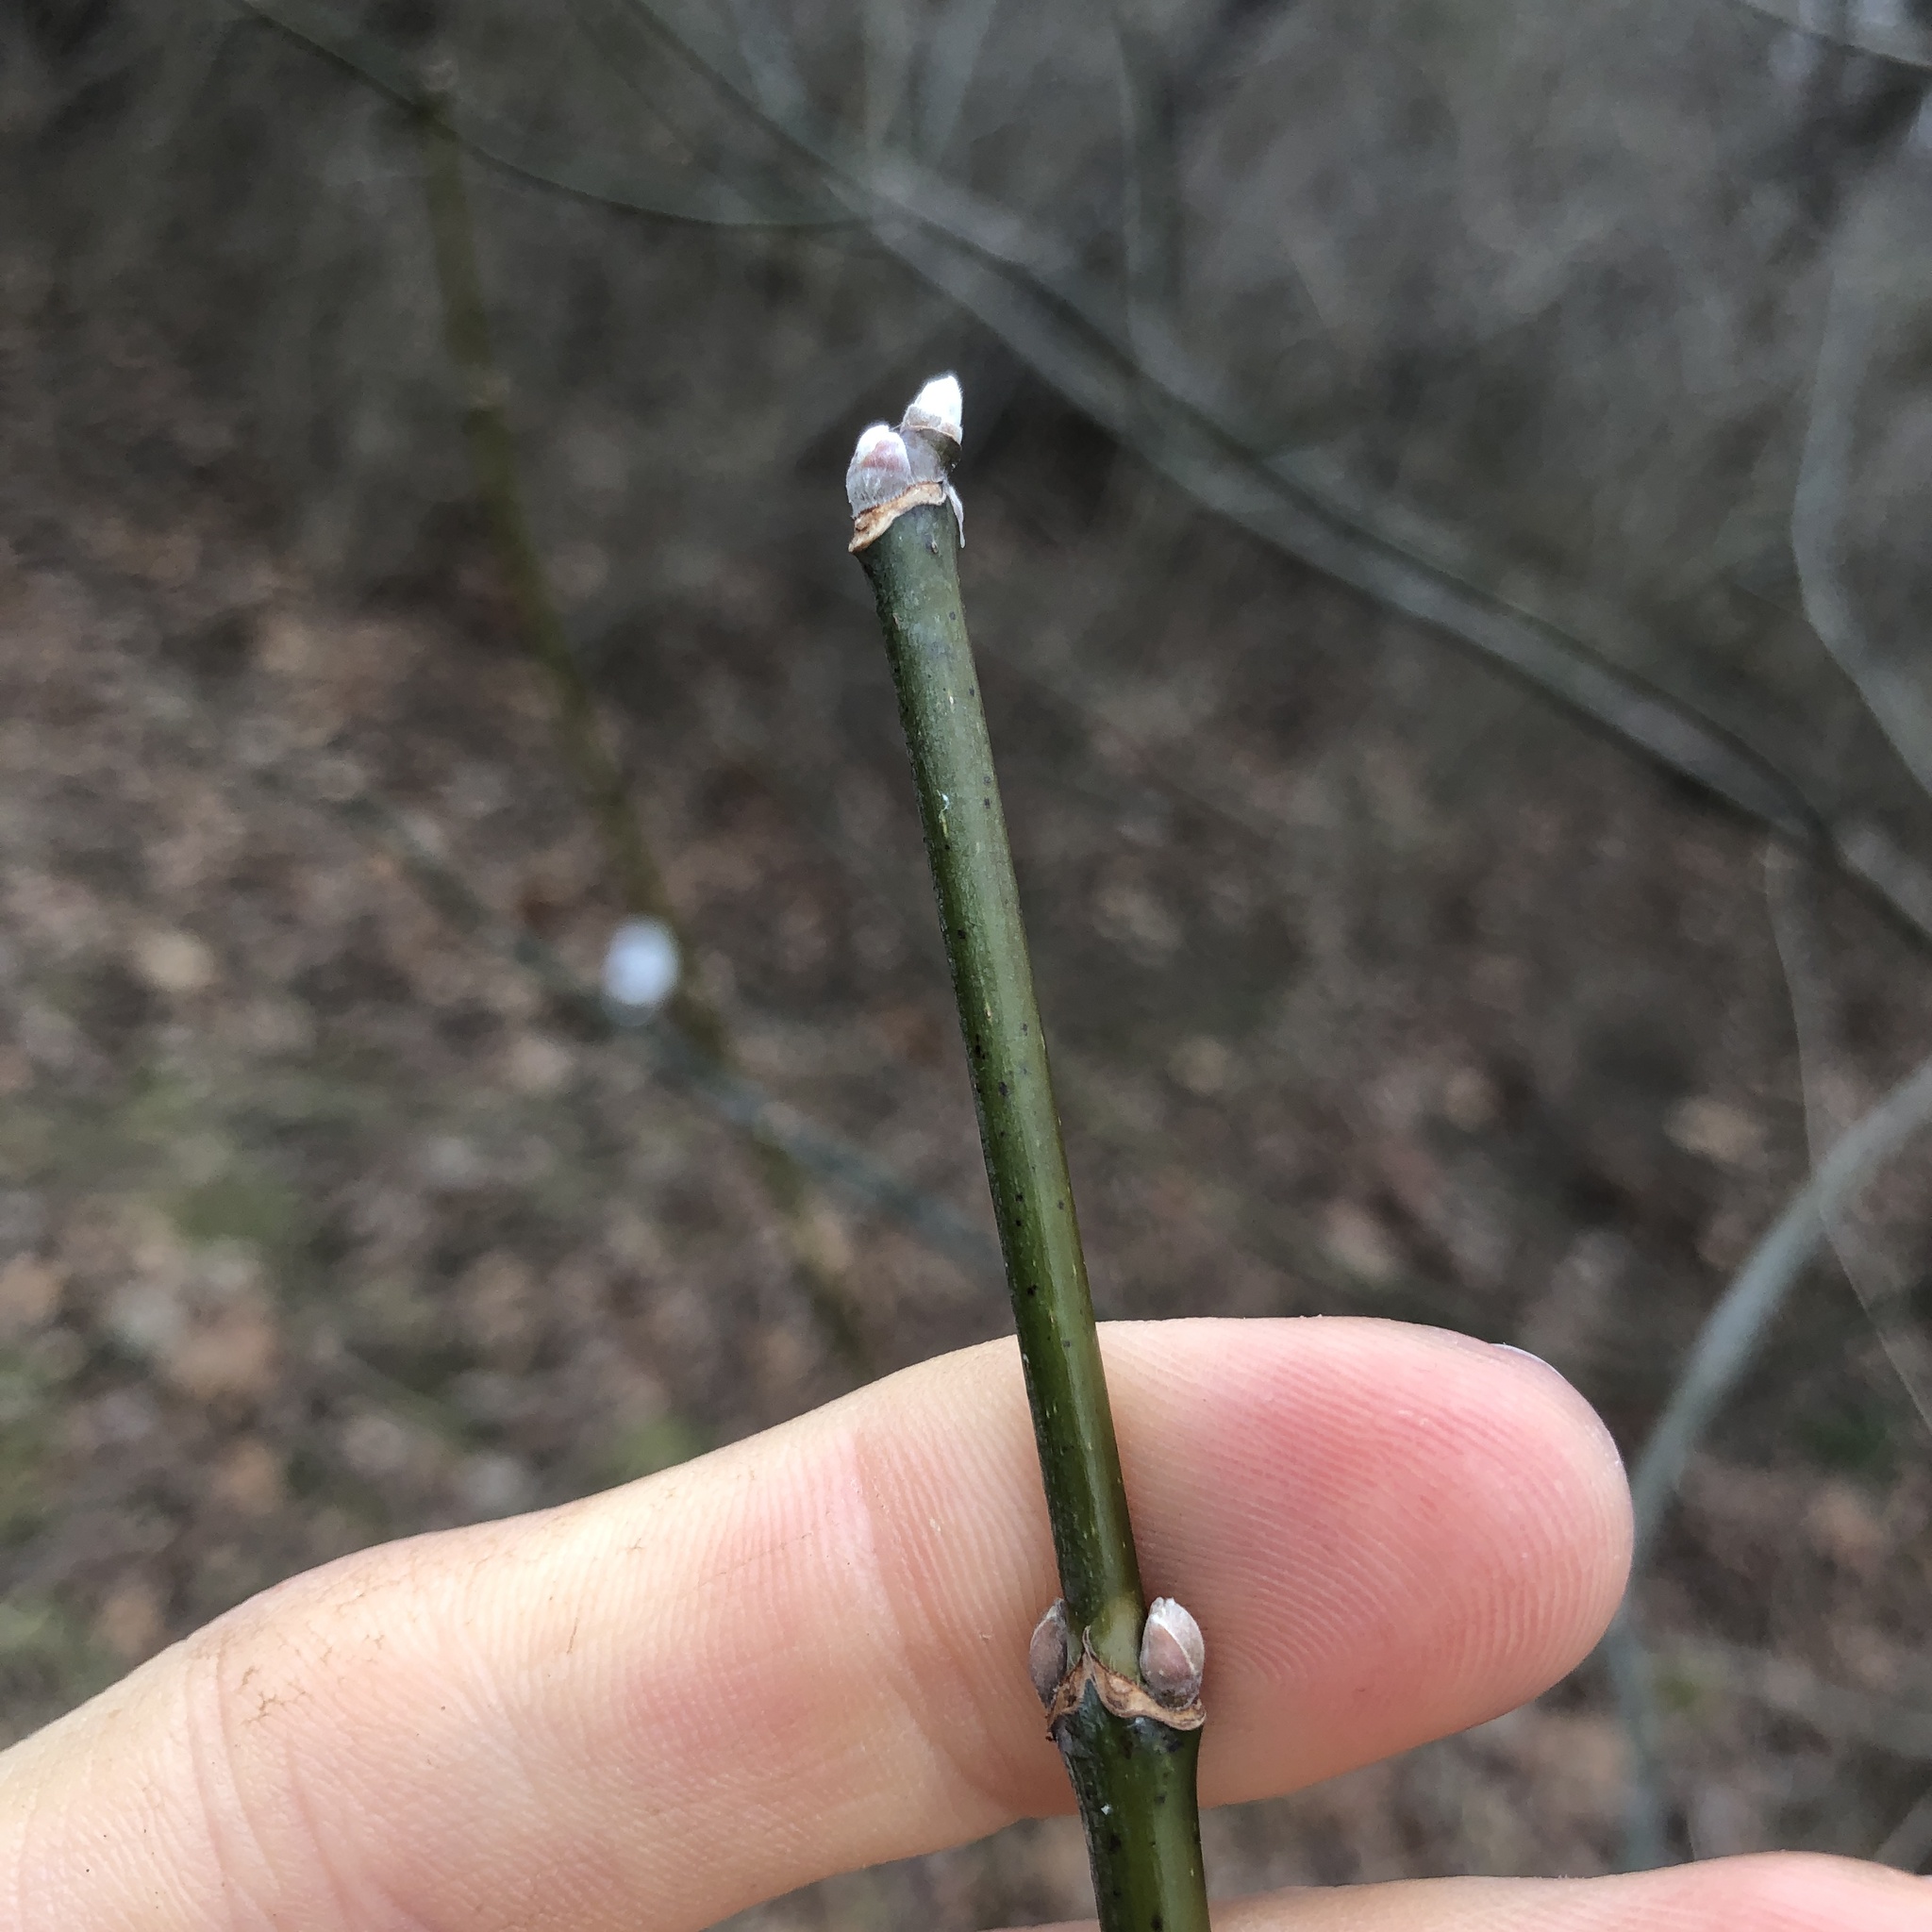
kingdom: Plantae
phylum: Tracheophyta
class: Magnoliopsida
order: Sapindales
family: Sapindaceae
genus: Acer
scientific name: Acer negundo
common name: Ashleaf maple
